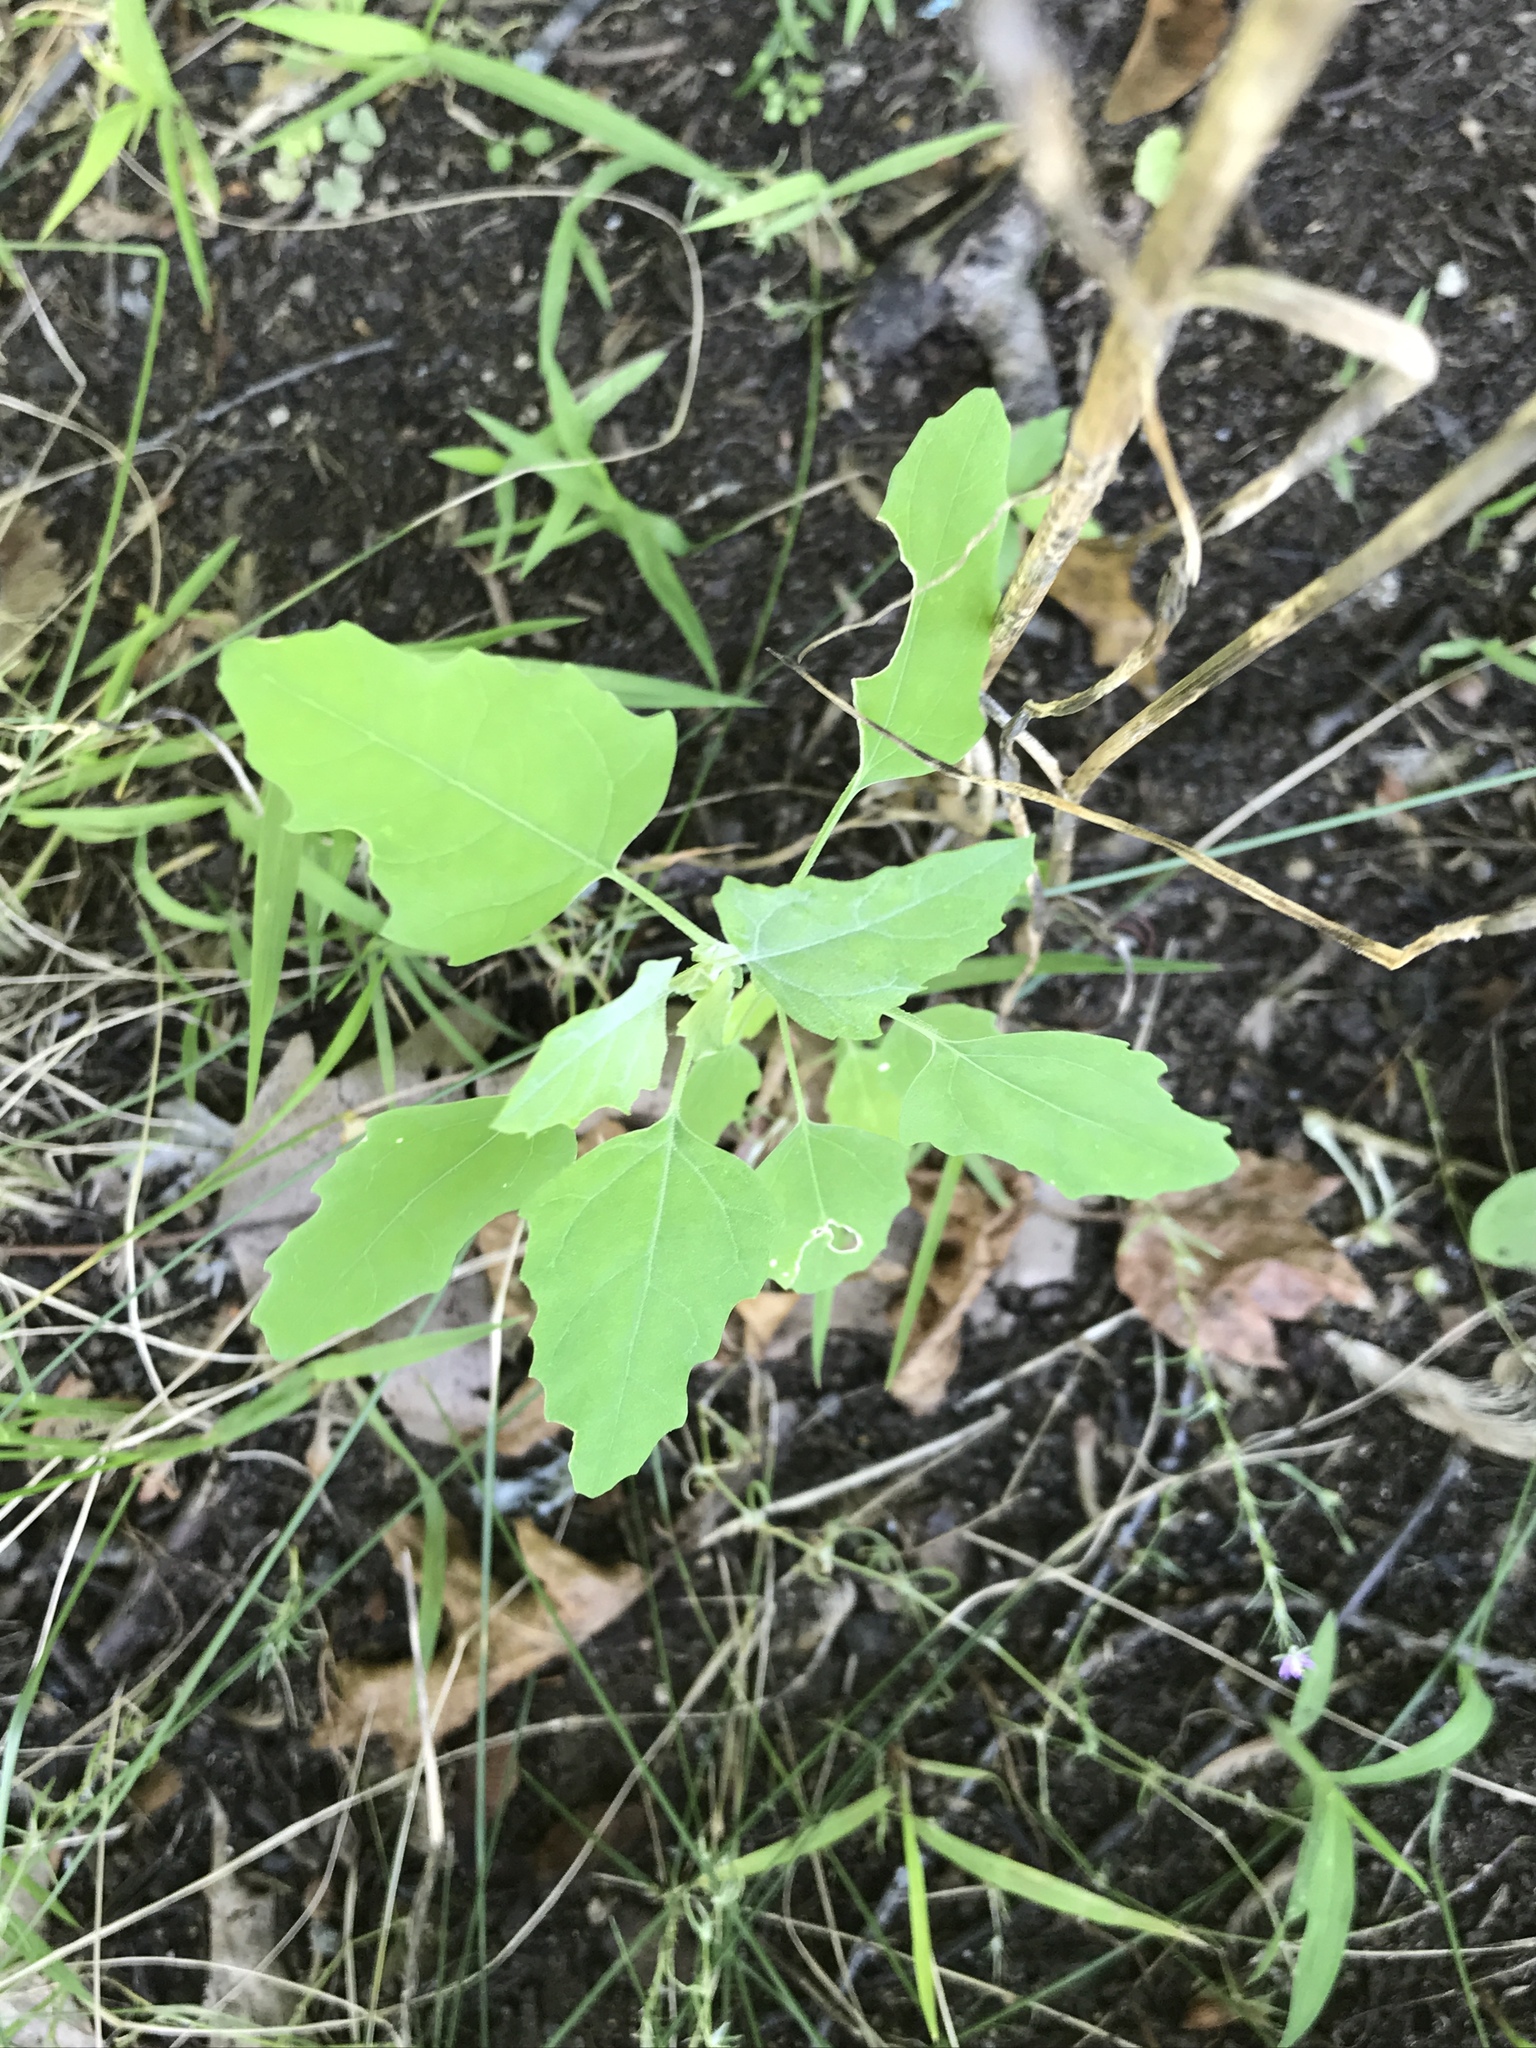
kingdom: Plantae
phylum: Tracheophyta
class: Magnoliopsida
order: Caryophyllales
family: Amaranthaceae
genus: Chenopodium
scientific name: Chenopodium album
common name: Fat-hen
